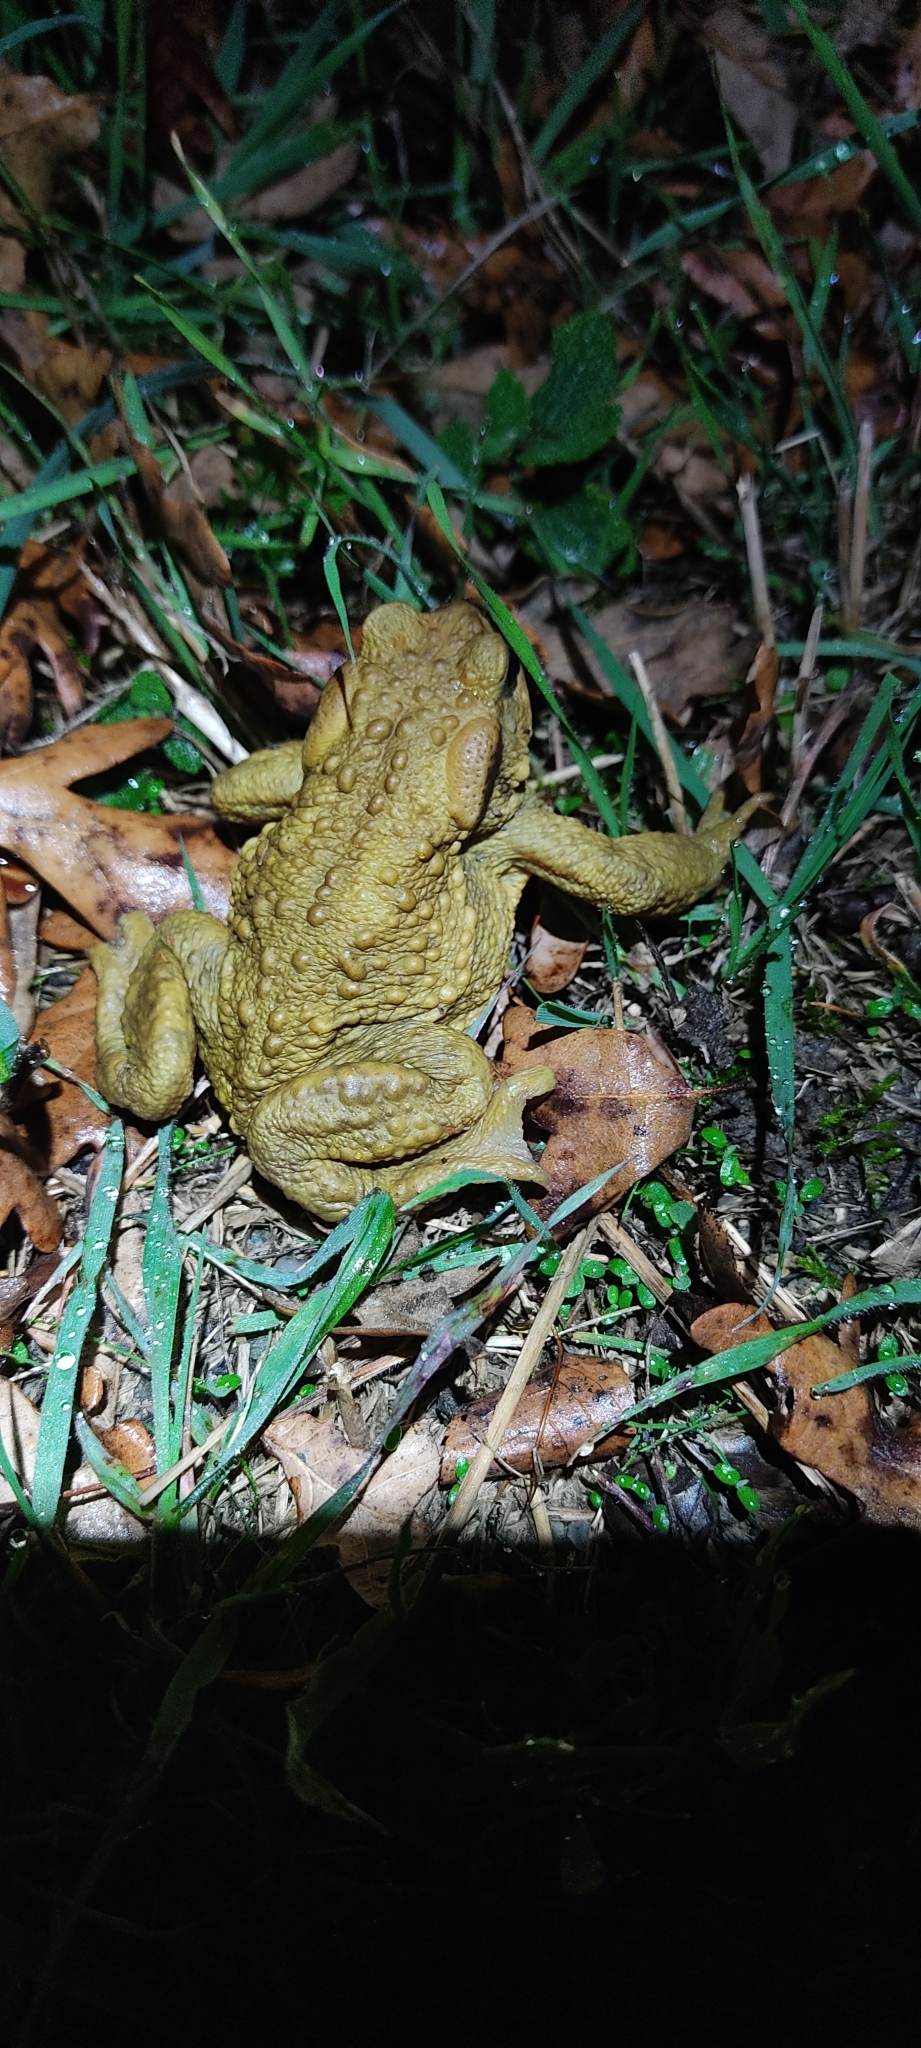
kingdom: Animalia
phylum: Chordata
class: Amphibia
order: Anura
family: Bufonidae
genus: Bufo
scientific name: Bufo spinosus
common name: Western common toad
